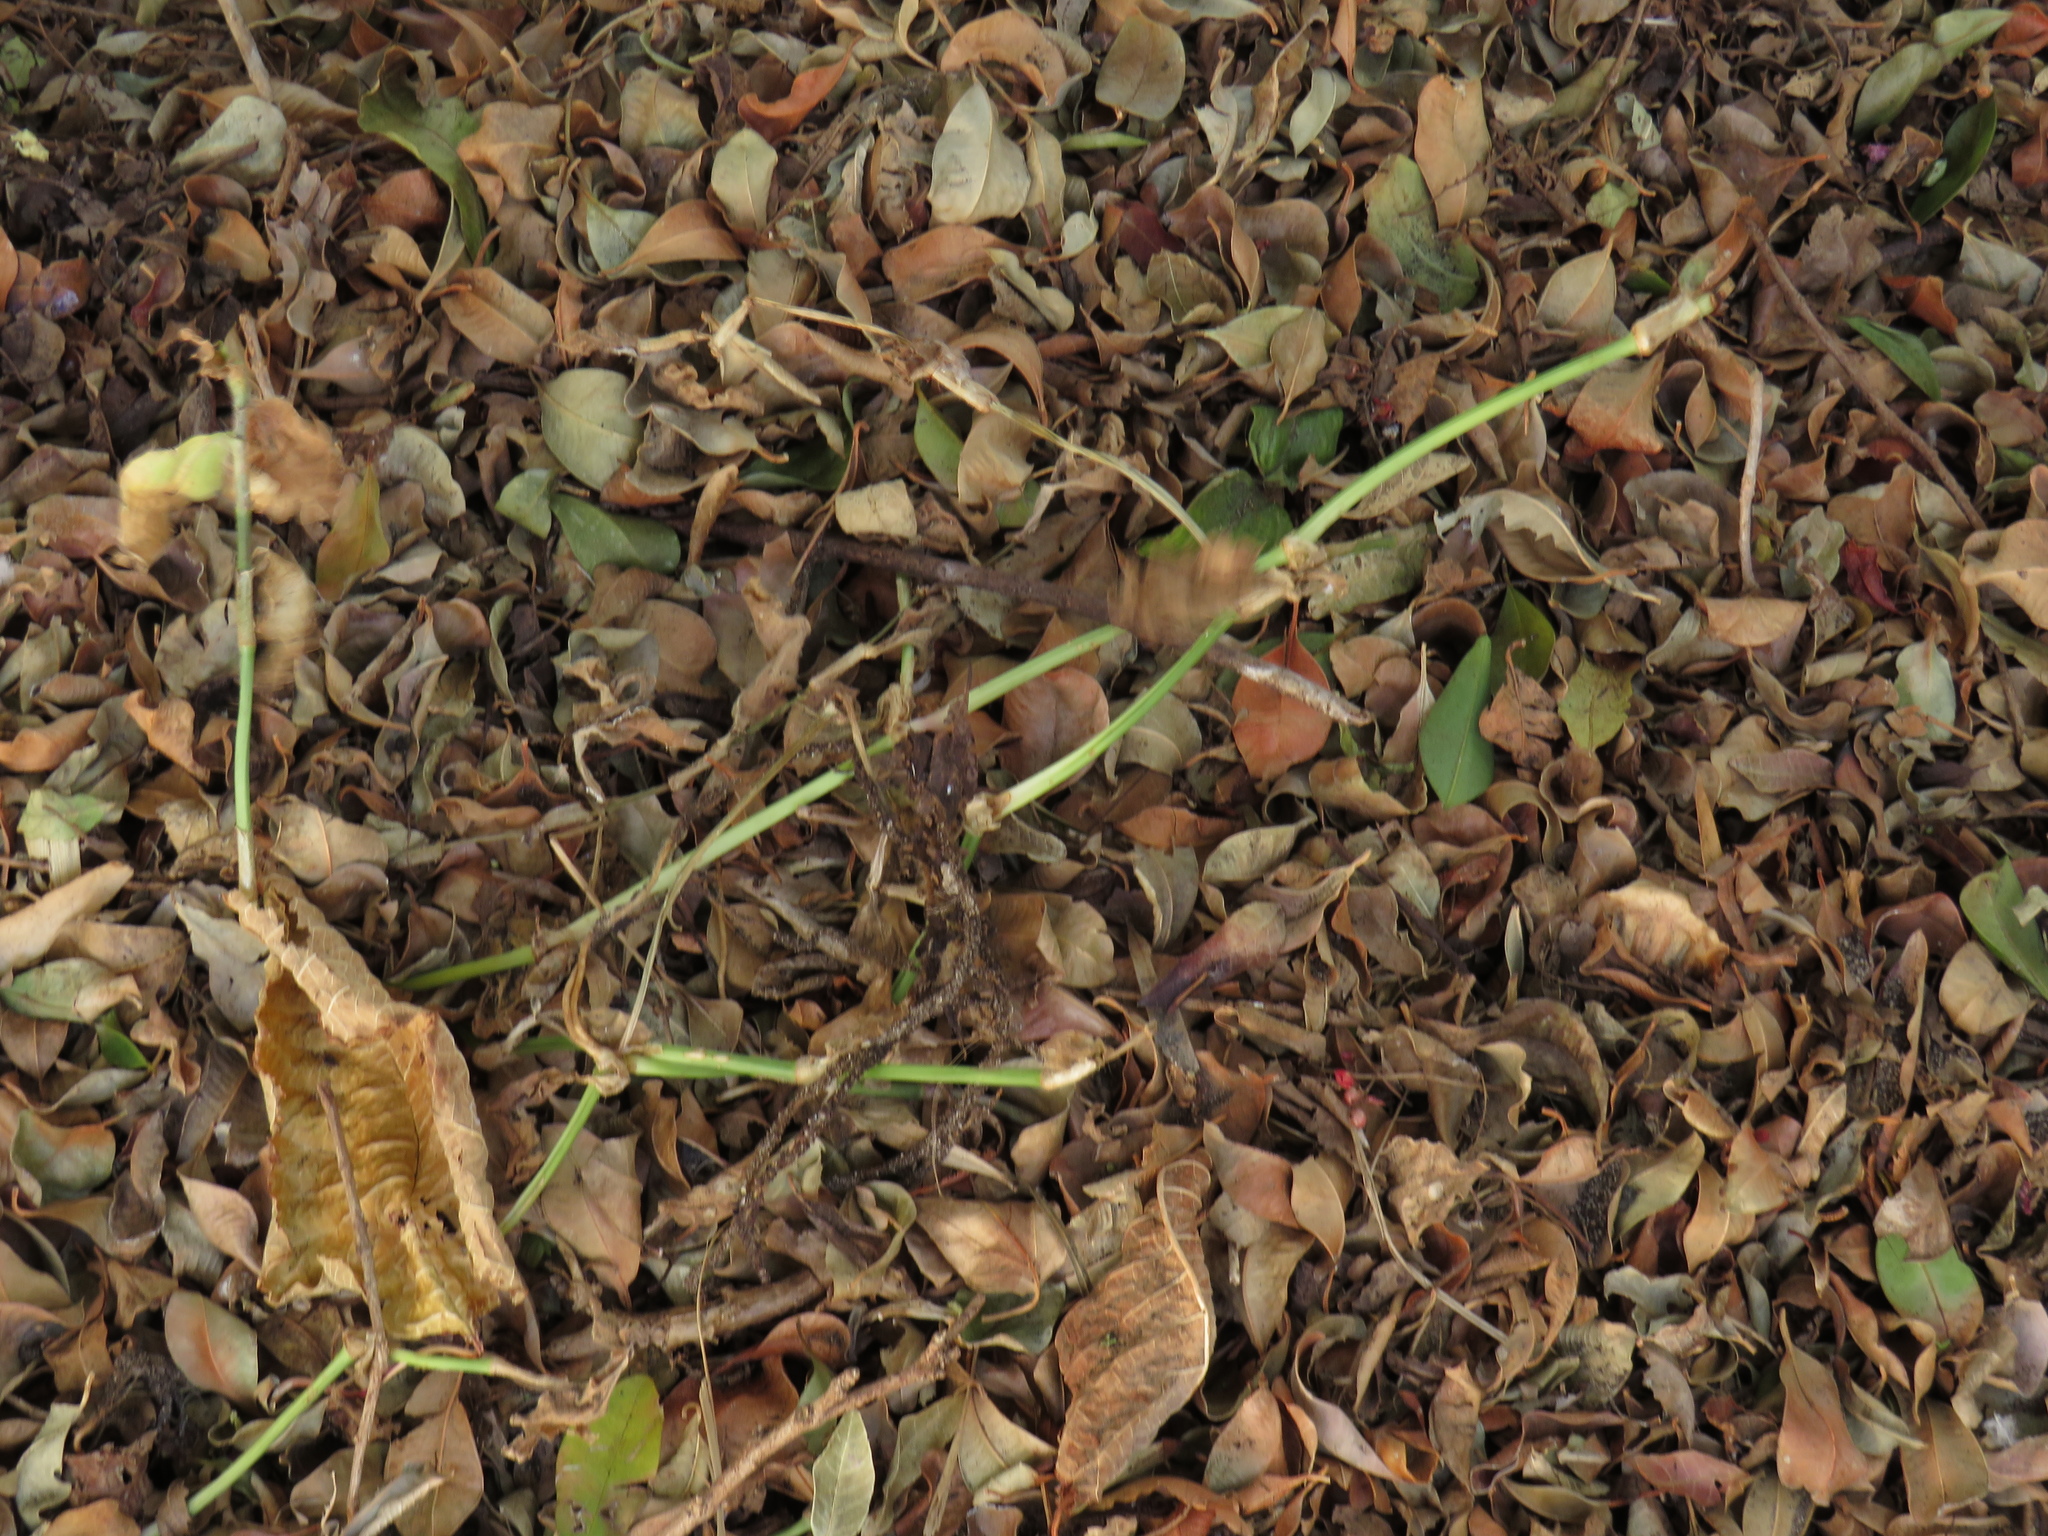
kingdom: Plantae
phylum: Tracheophyta
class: Liliopsida
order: Commelinales
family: Commelinaceae
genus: Commelina
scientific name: Commelina benghalensis
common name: Jio
